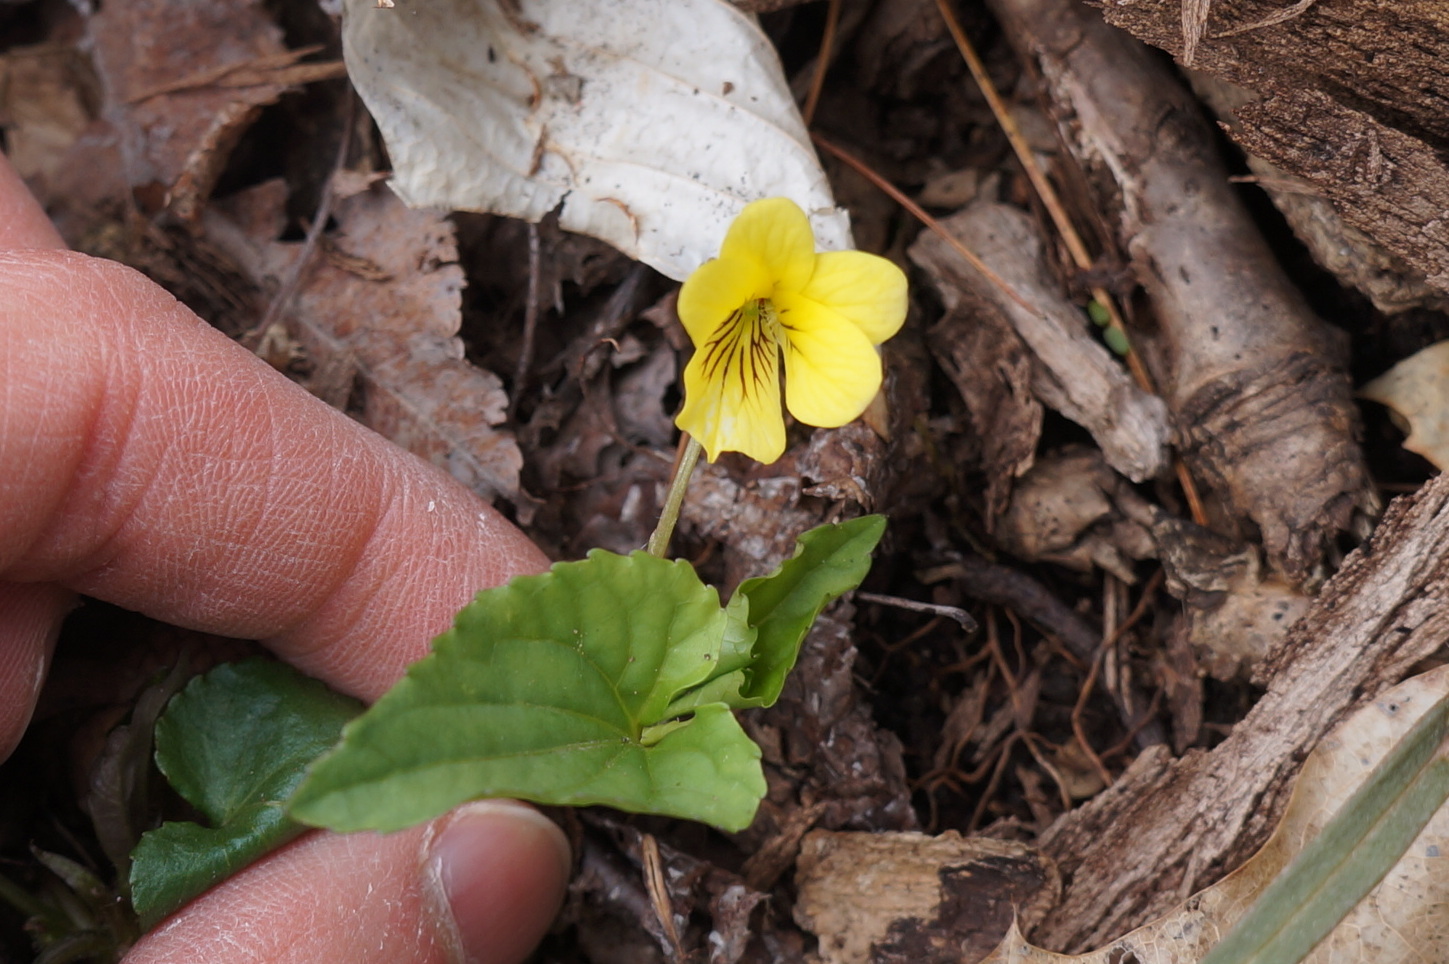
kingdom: Plantae
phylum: Tracheophyta
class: Magnoliopsida
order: Malpighiales
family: Violaceae
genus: Viola
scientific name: Viola rotundifolia
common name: Early yellow violet
